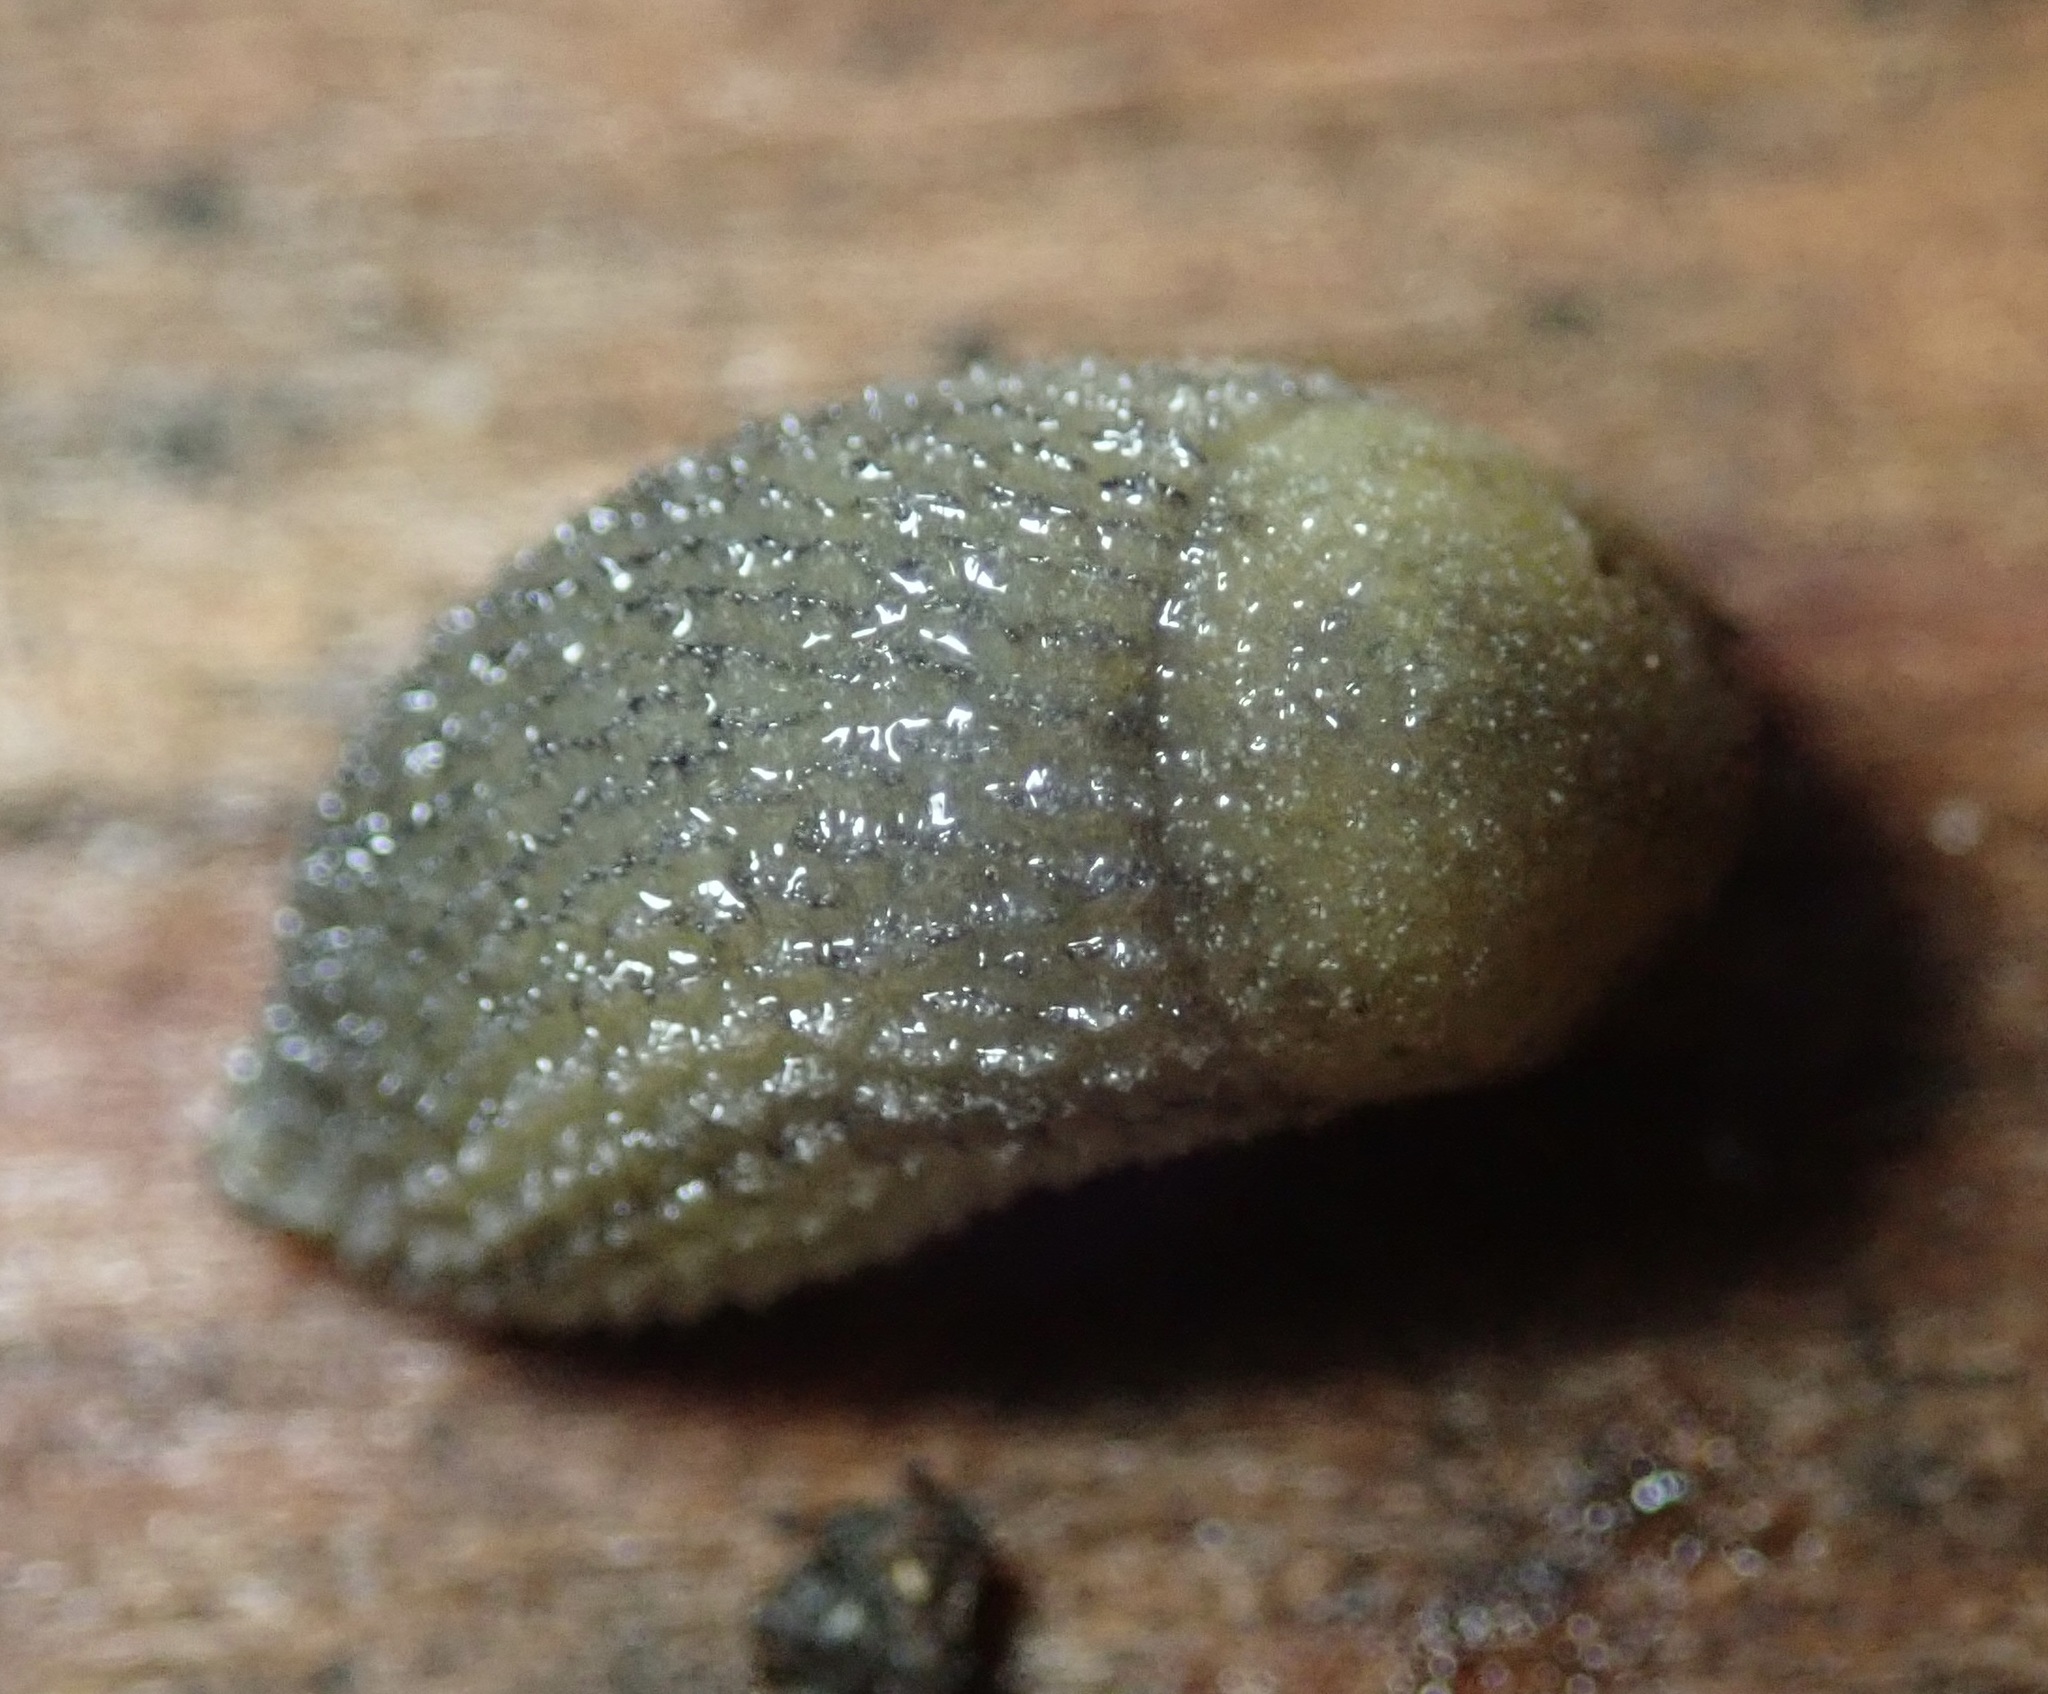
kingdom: Animalia
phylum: Mollusca
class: Gastropoda
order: Stylommatophora
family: Arionidae
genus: Arion
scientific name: Arion intermedius
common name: Hedgehog slug
